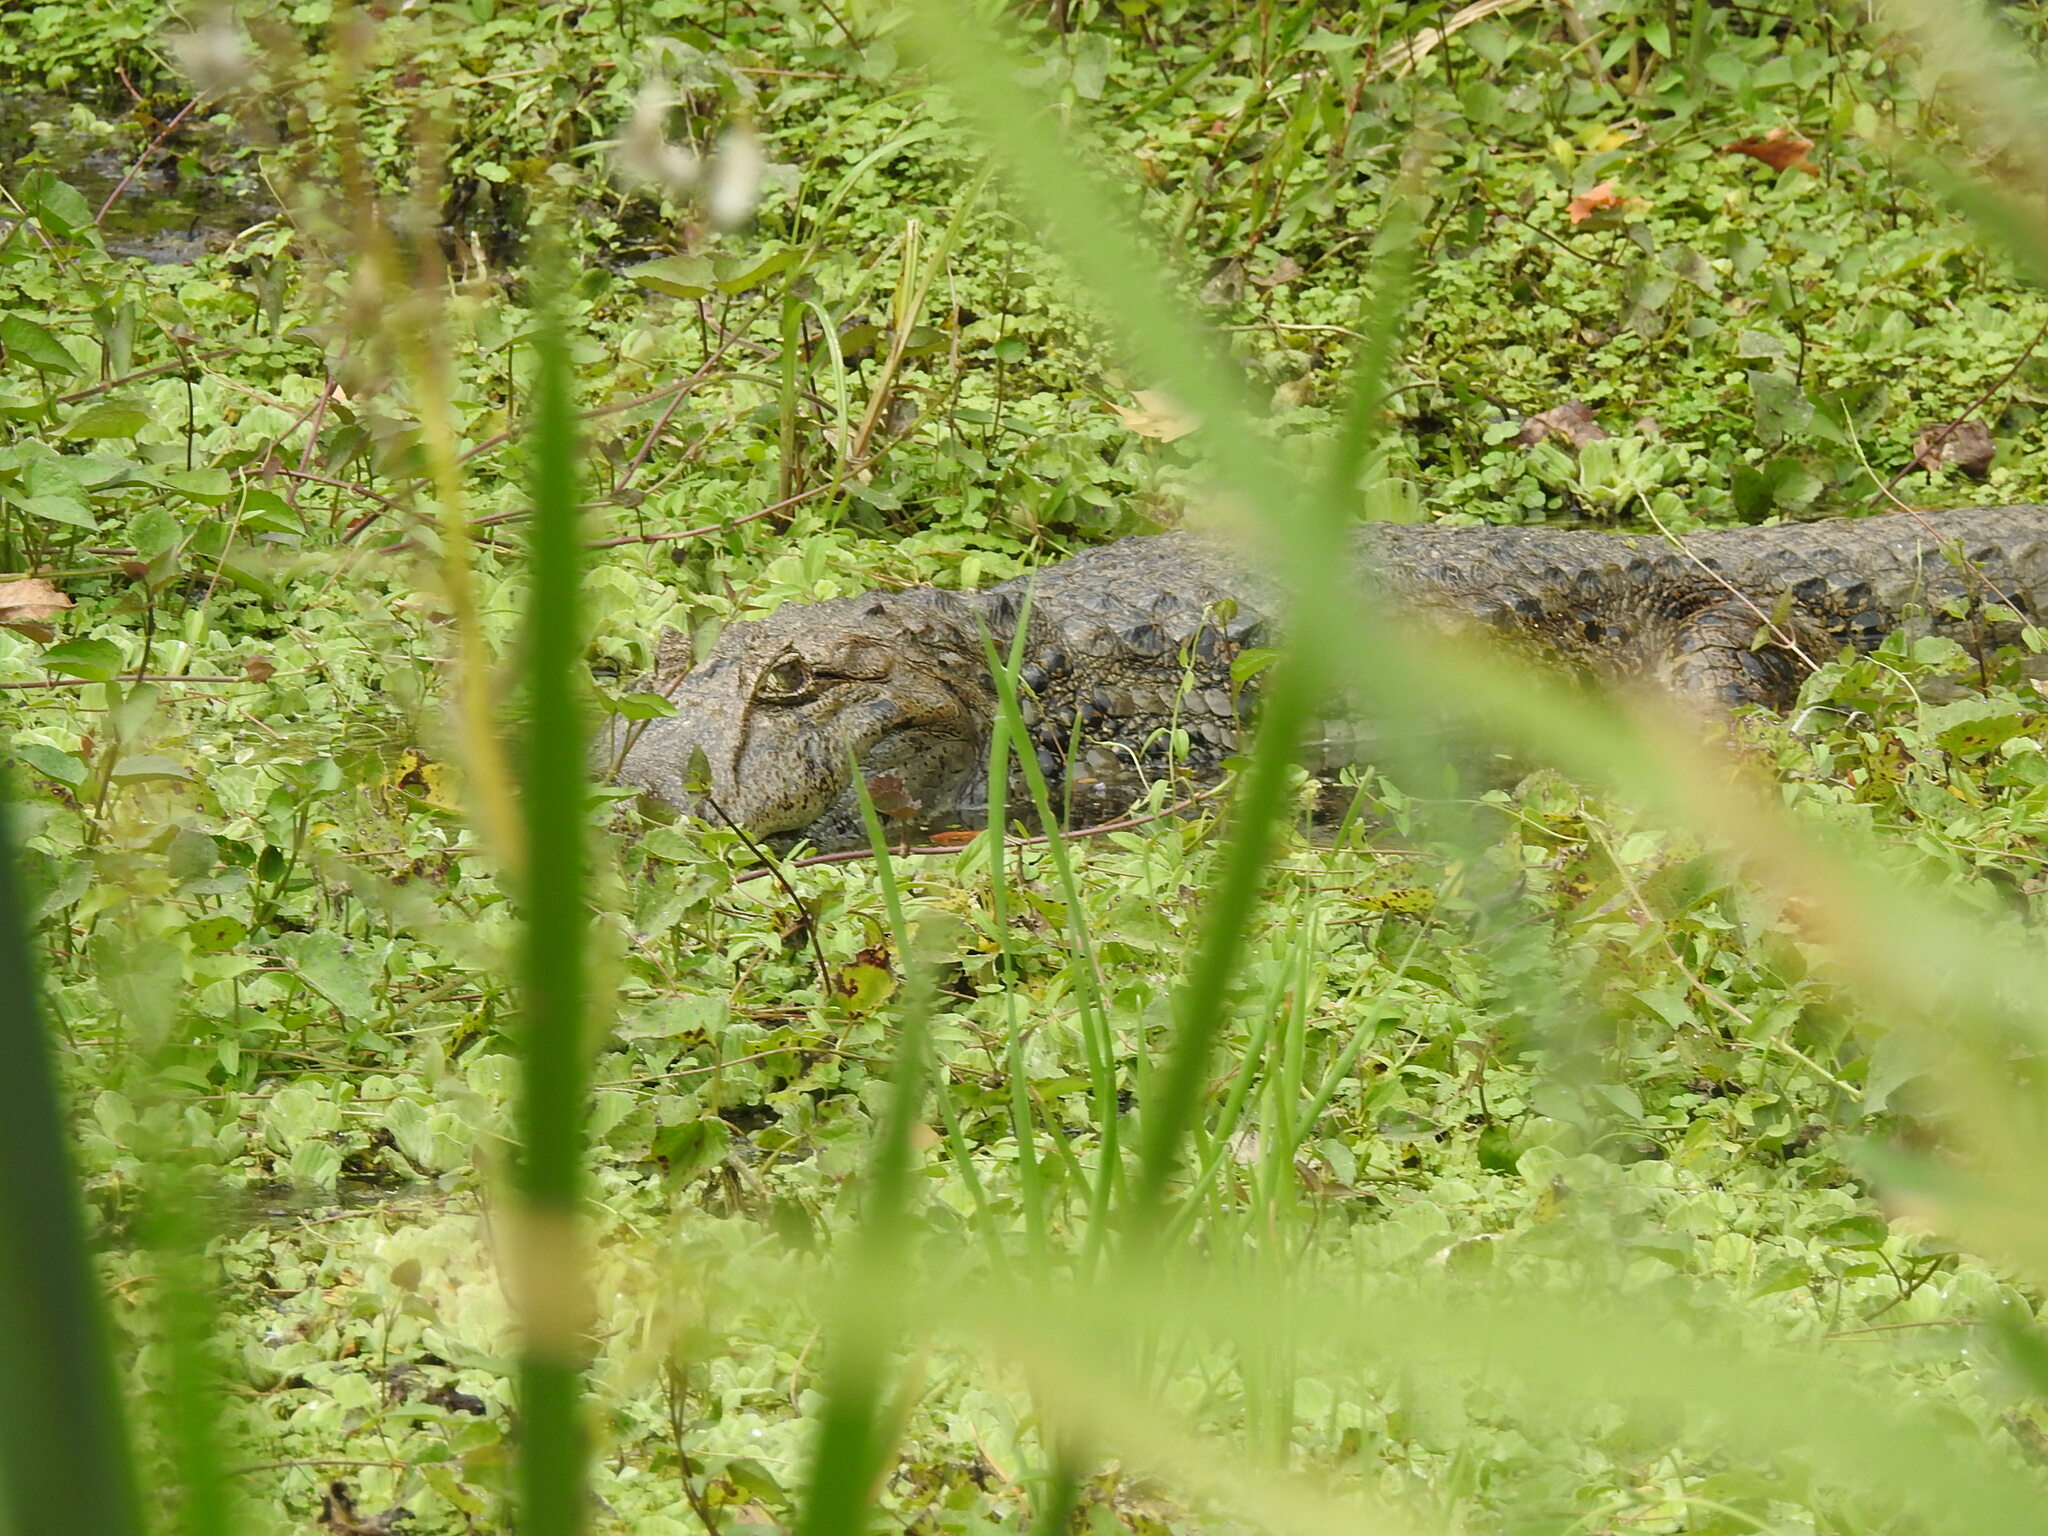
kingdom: Animalia
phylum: Chordata
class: Crocodylia
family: Alligatoridae
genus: Caiman
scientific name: Caiman latirostris
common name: Broad-snouted caiman
